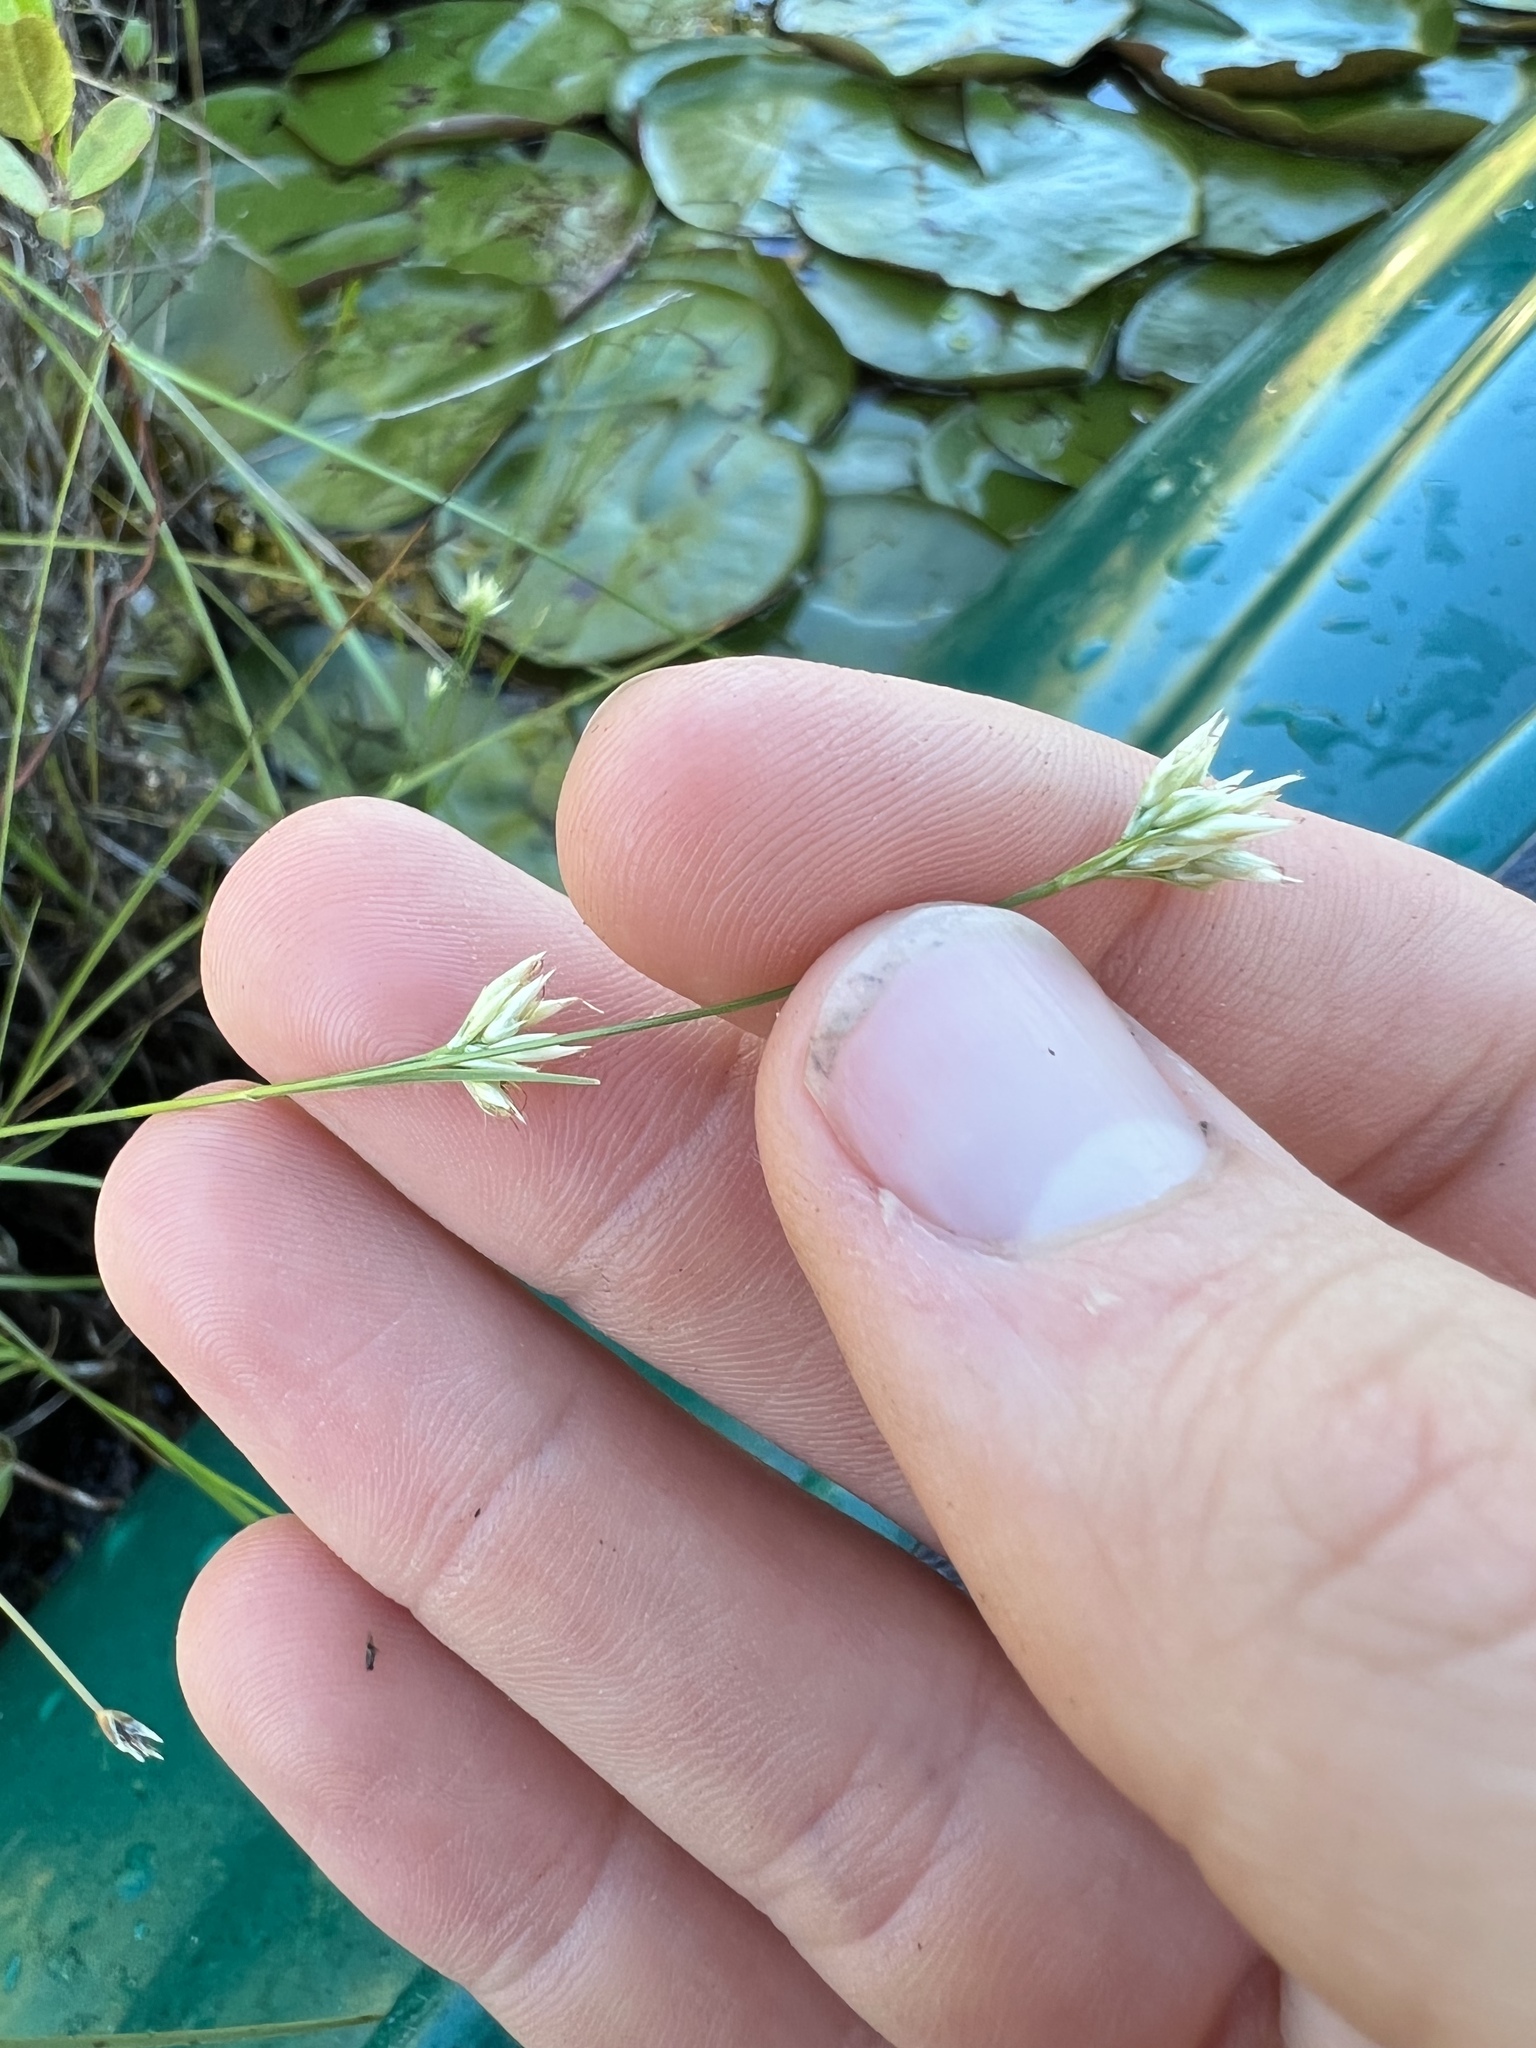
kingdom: Plantae
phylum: Tracheophyta
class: Liliopsida
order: Poales
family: Cyperaceae
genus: Rhynchospora
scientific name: Rhynchospora alba
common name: White beak-sedge
